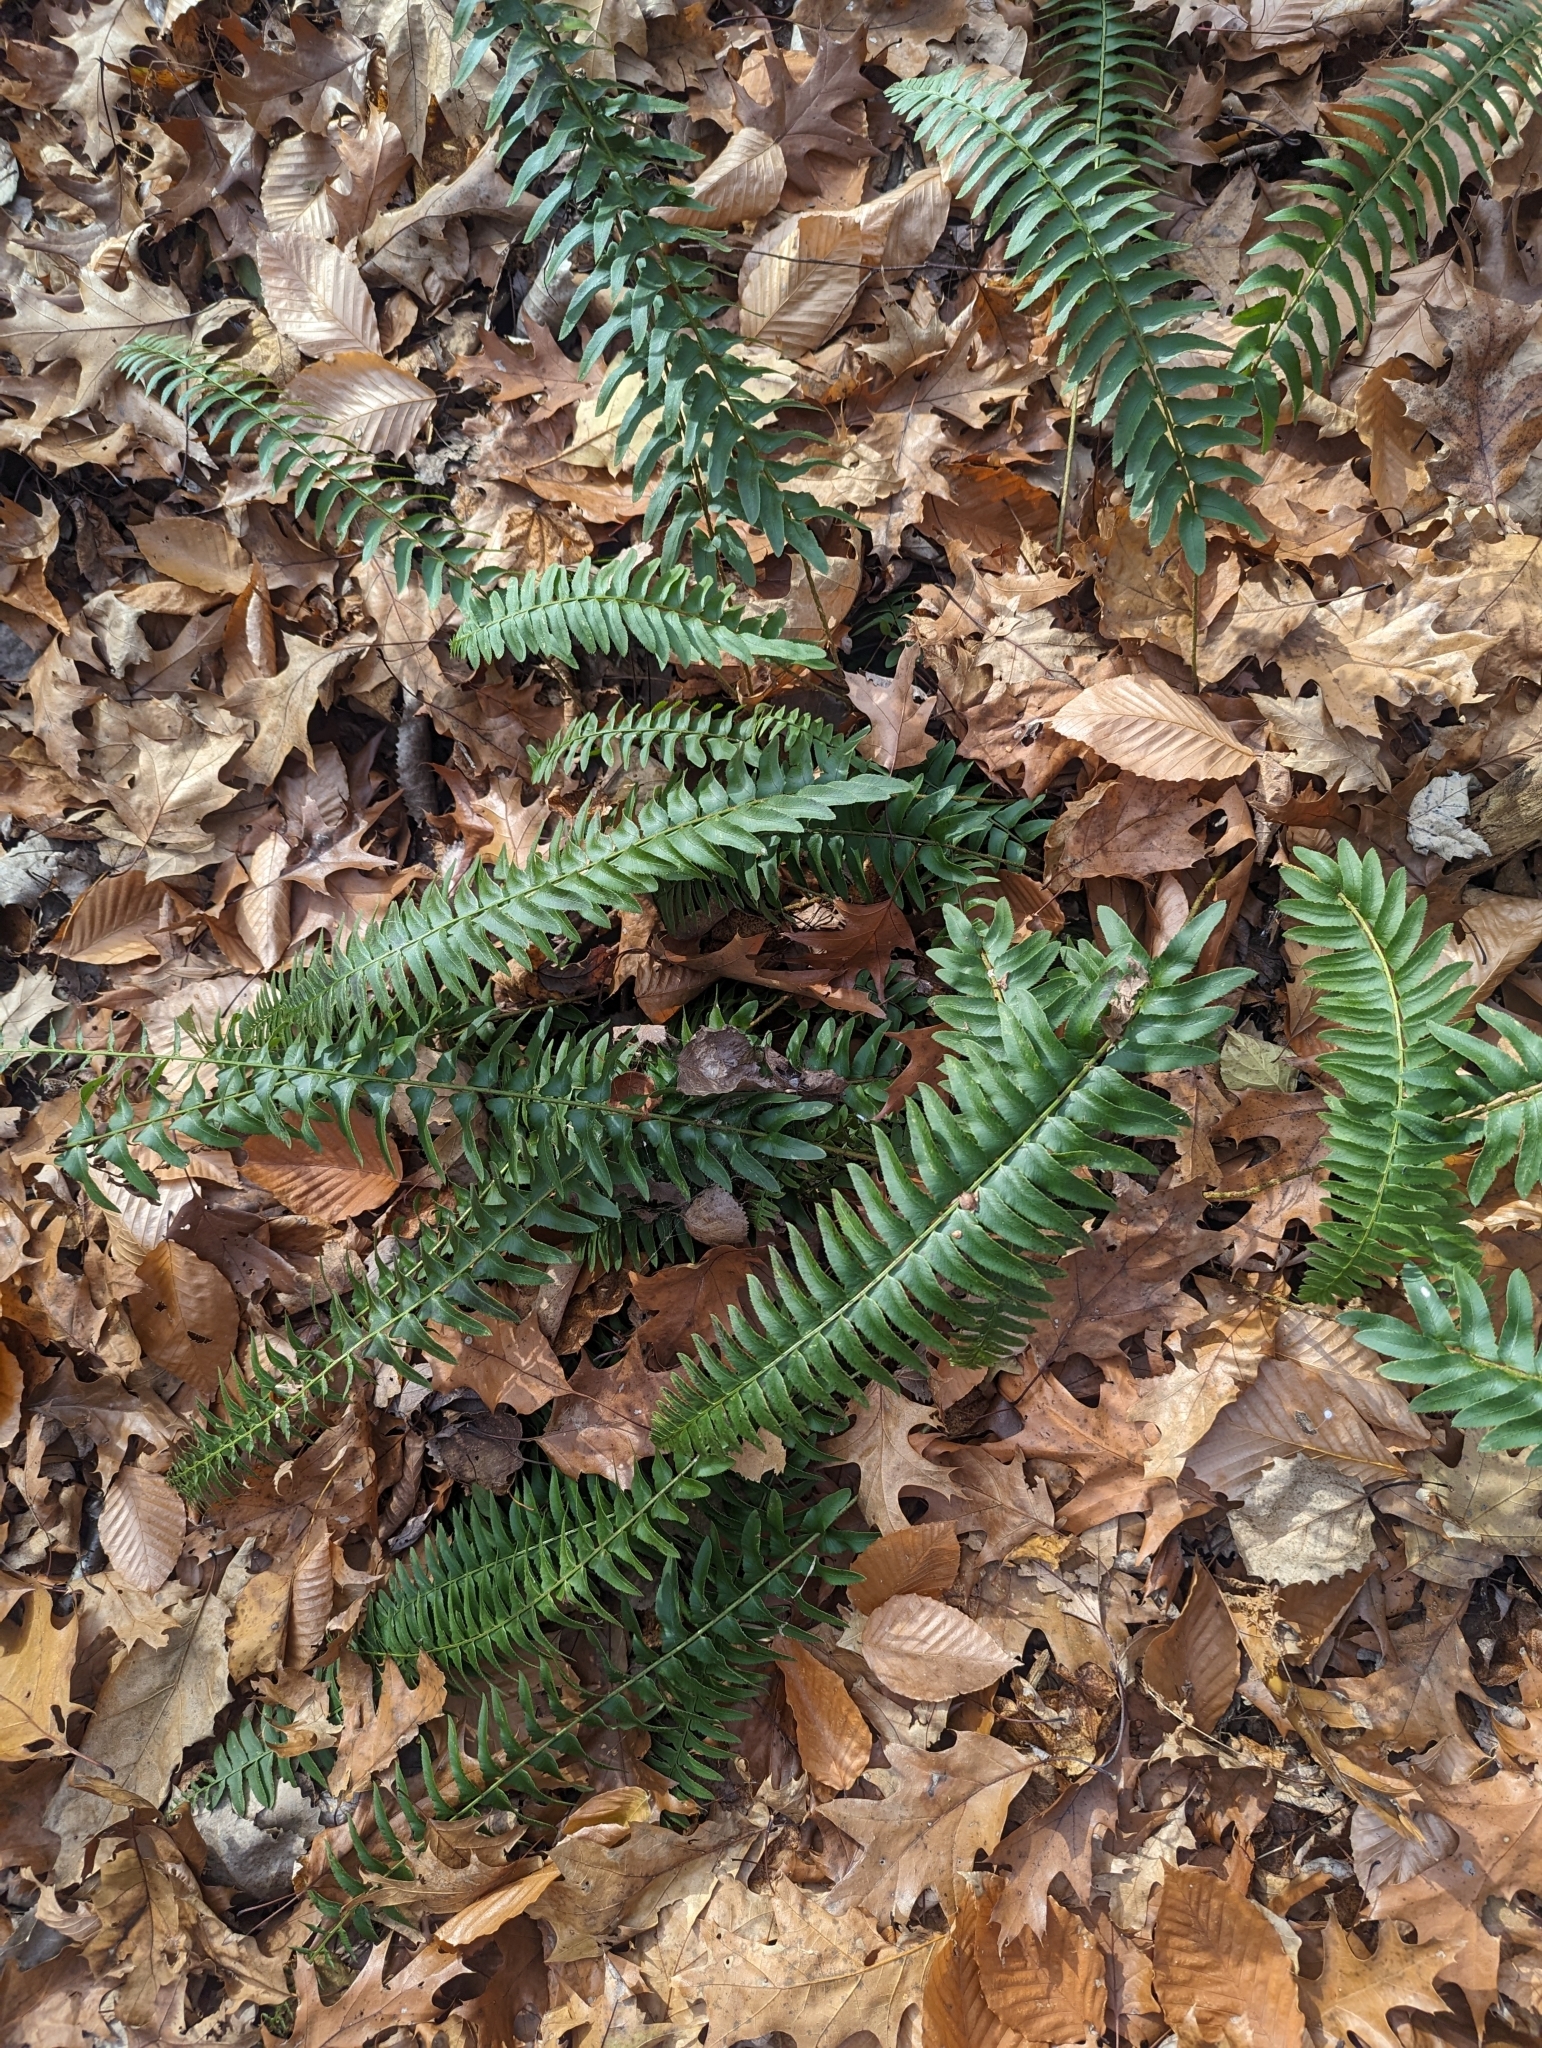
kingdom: Plantae
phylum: Tracheophyta
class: Polypodiopsida
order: Polypodiales
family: Dryopteridaceae
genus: Polystichum
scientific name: Polystichum acrostichoides
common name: Christmas fern
